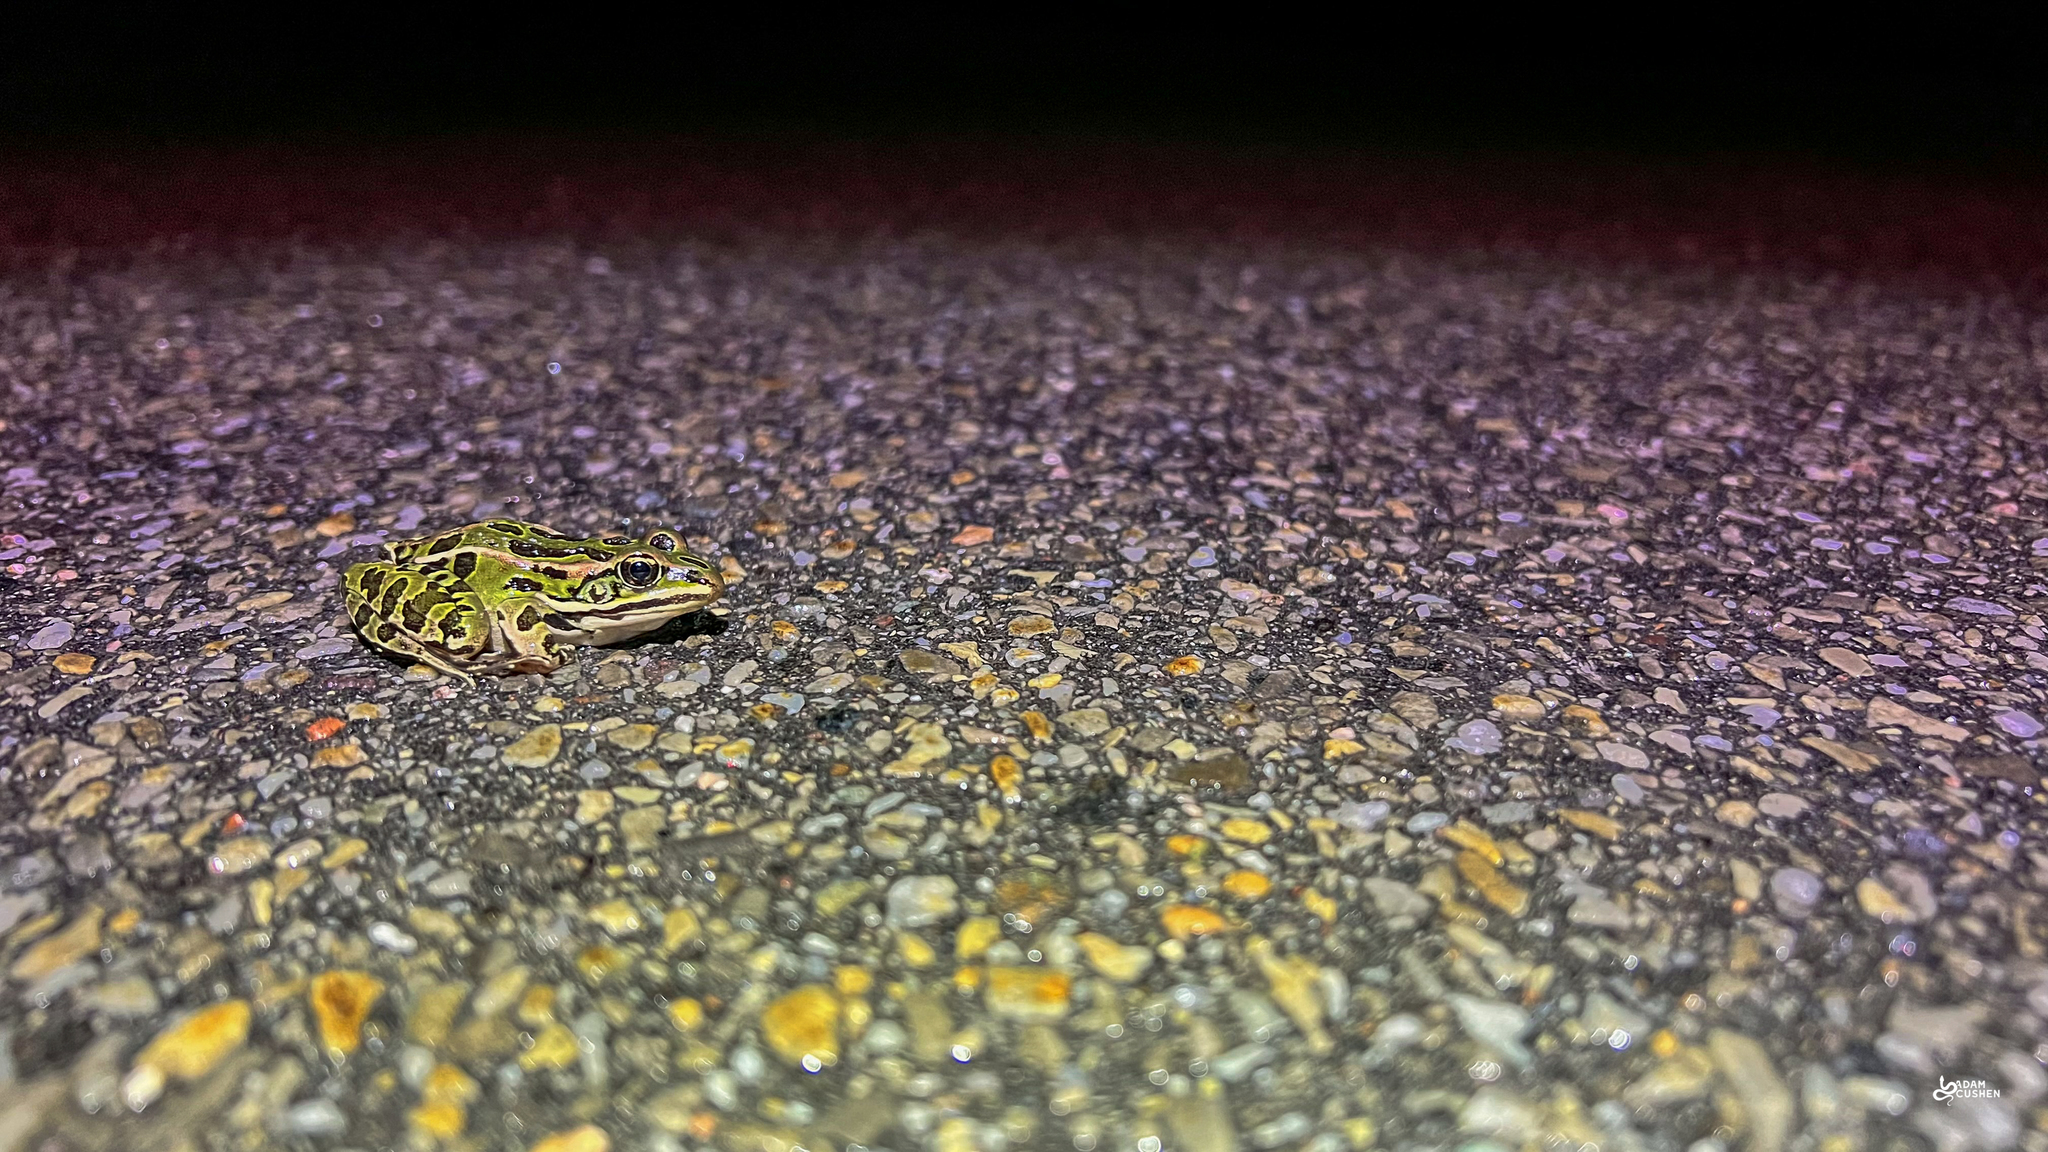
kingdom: Animalia
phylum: Chordata
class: Amphibia
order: Anura
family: Ranidae
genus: Lithobates
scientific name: Lithobates pipiens
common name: Northern leopard frog
